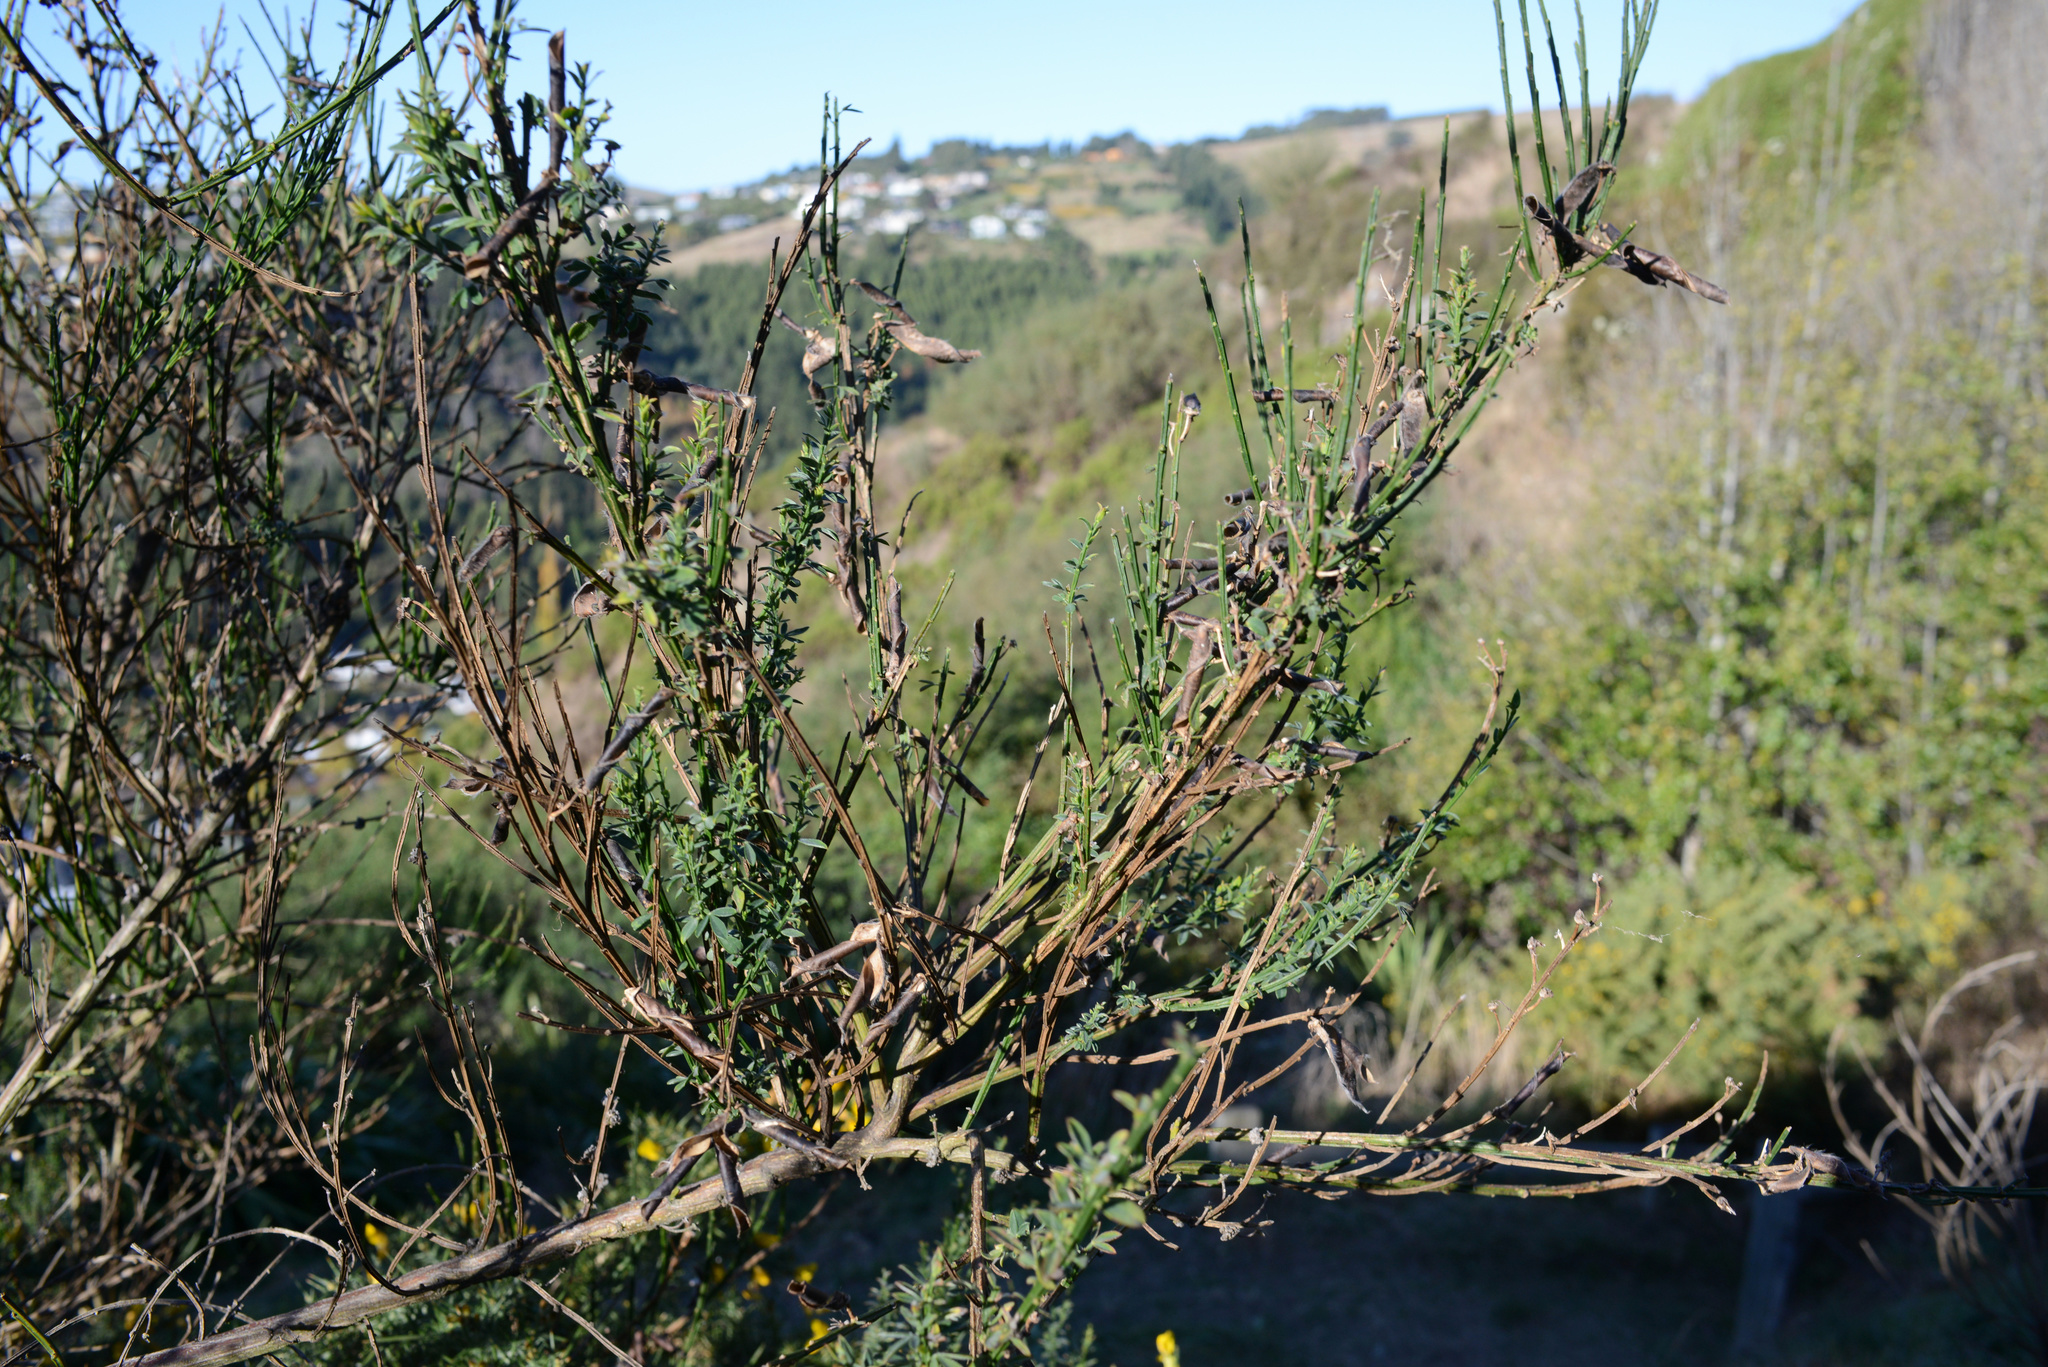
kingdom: Plantae
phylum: Tracheophyta
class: Magnoliopsida
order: Fabales
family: Fabaceae
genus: Cytisus
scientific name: Cytisus scoparius
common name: Scotch broom
